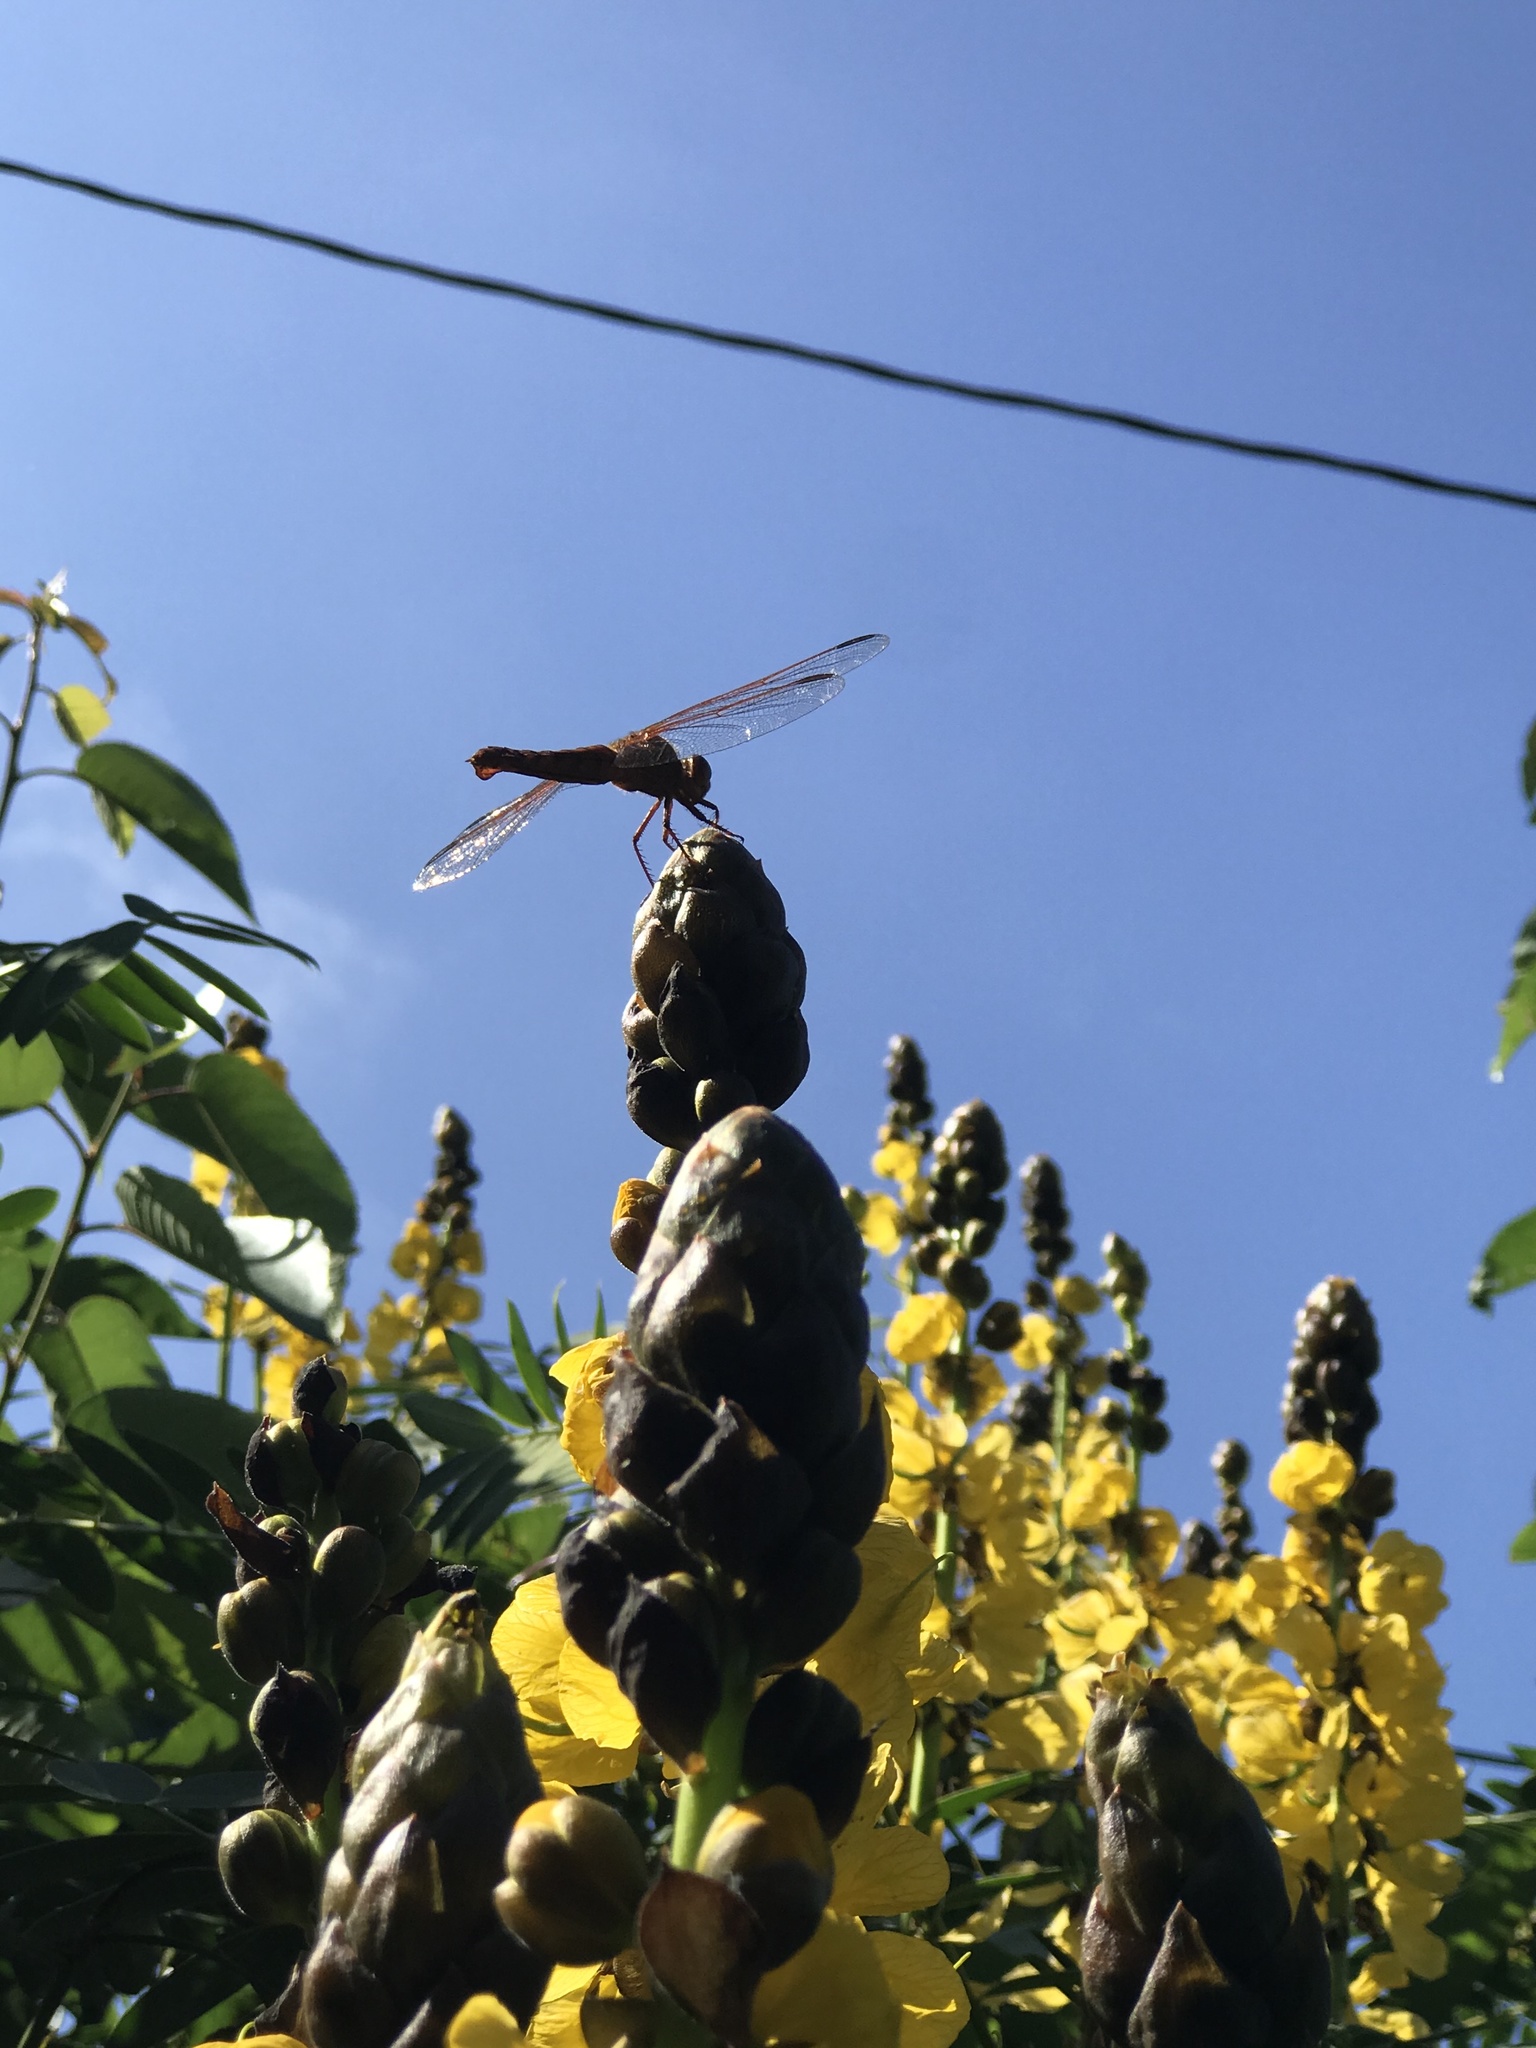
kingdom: Animalia
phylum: Arthropoda
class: Insecta
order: Odonata
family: Libellulidae
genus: Libellula
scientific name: Libellula croceipennis
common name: Neon skimmer
